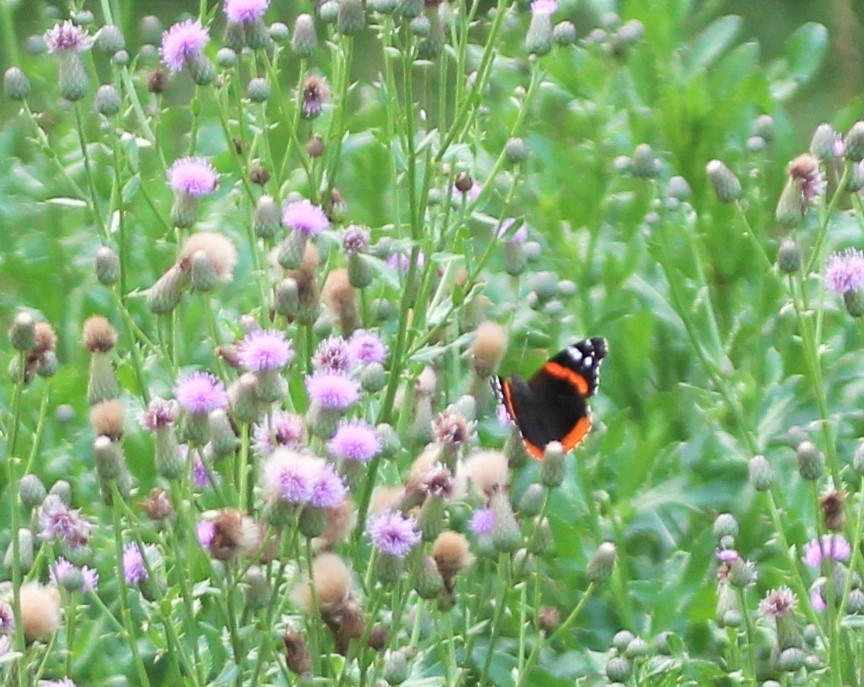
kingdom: Animalia
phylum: Arthropoda
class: Insecta
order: Lepidoptera
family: Nymphalidae
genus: Vanessa
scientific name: Vanessa atalanta
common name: Red admiral
